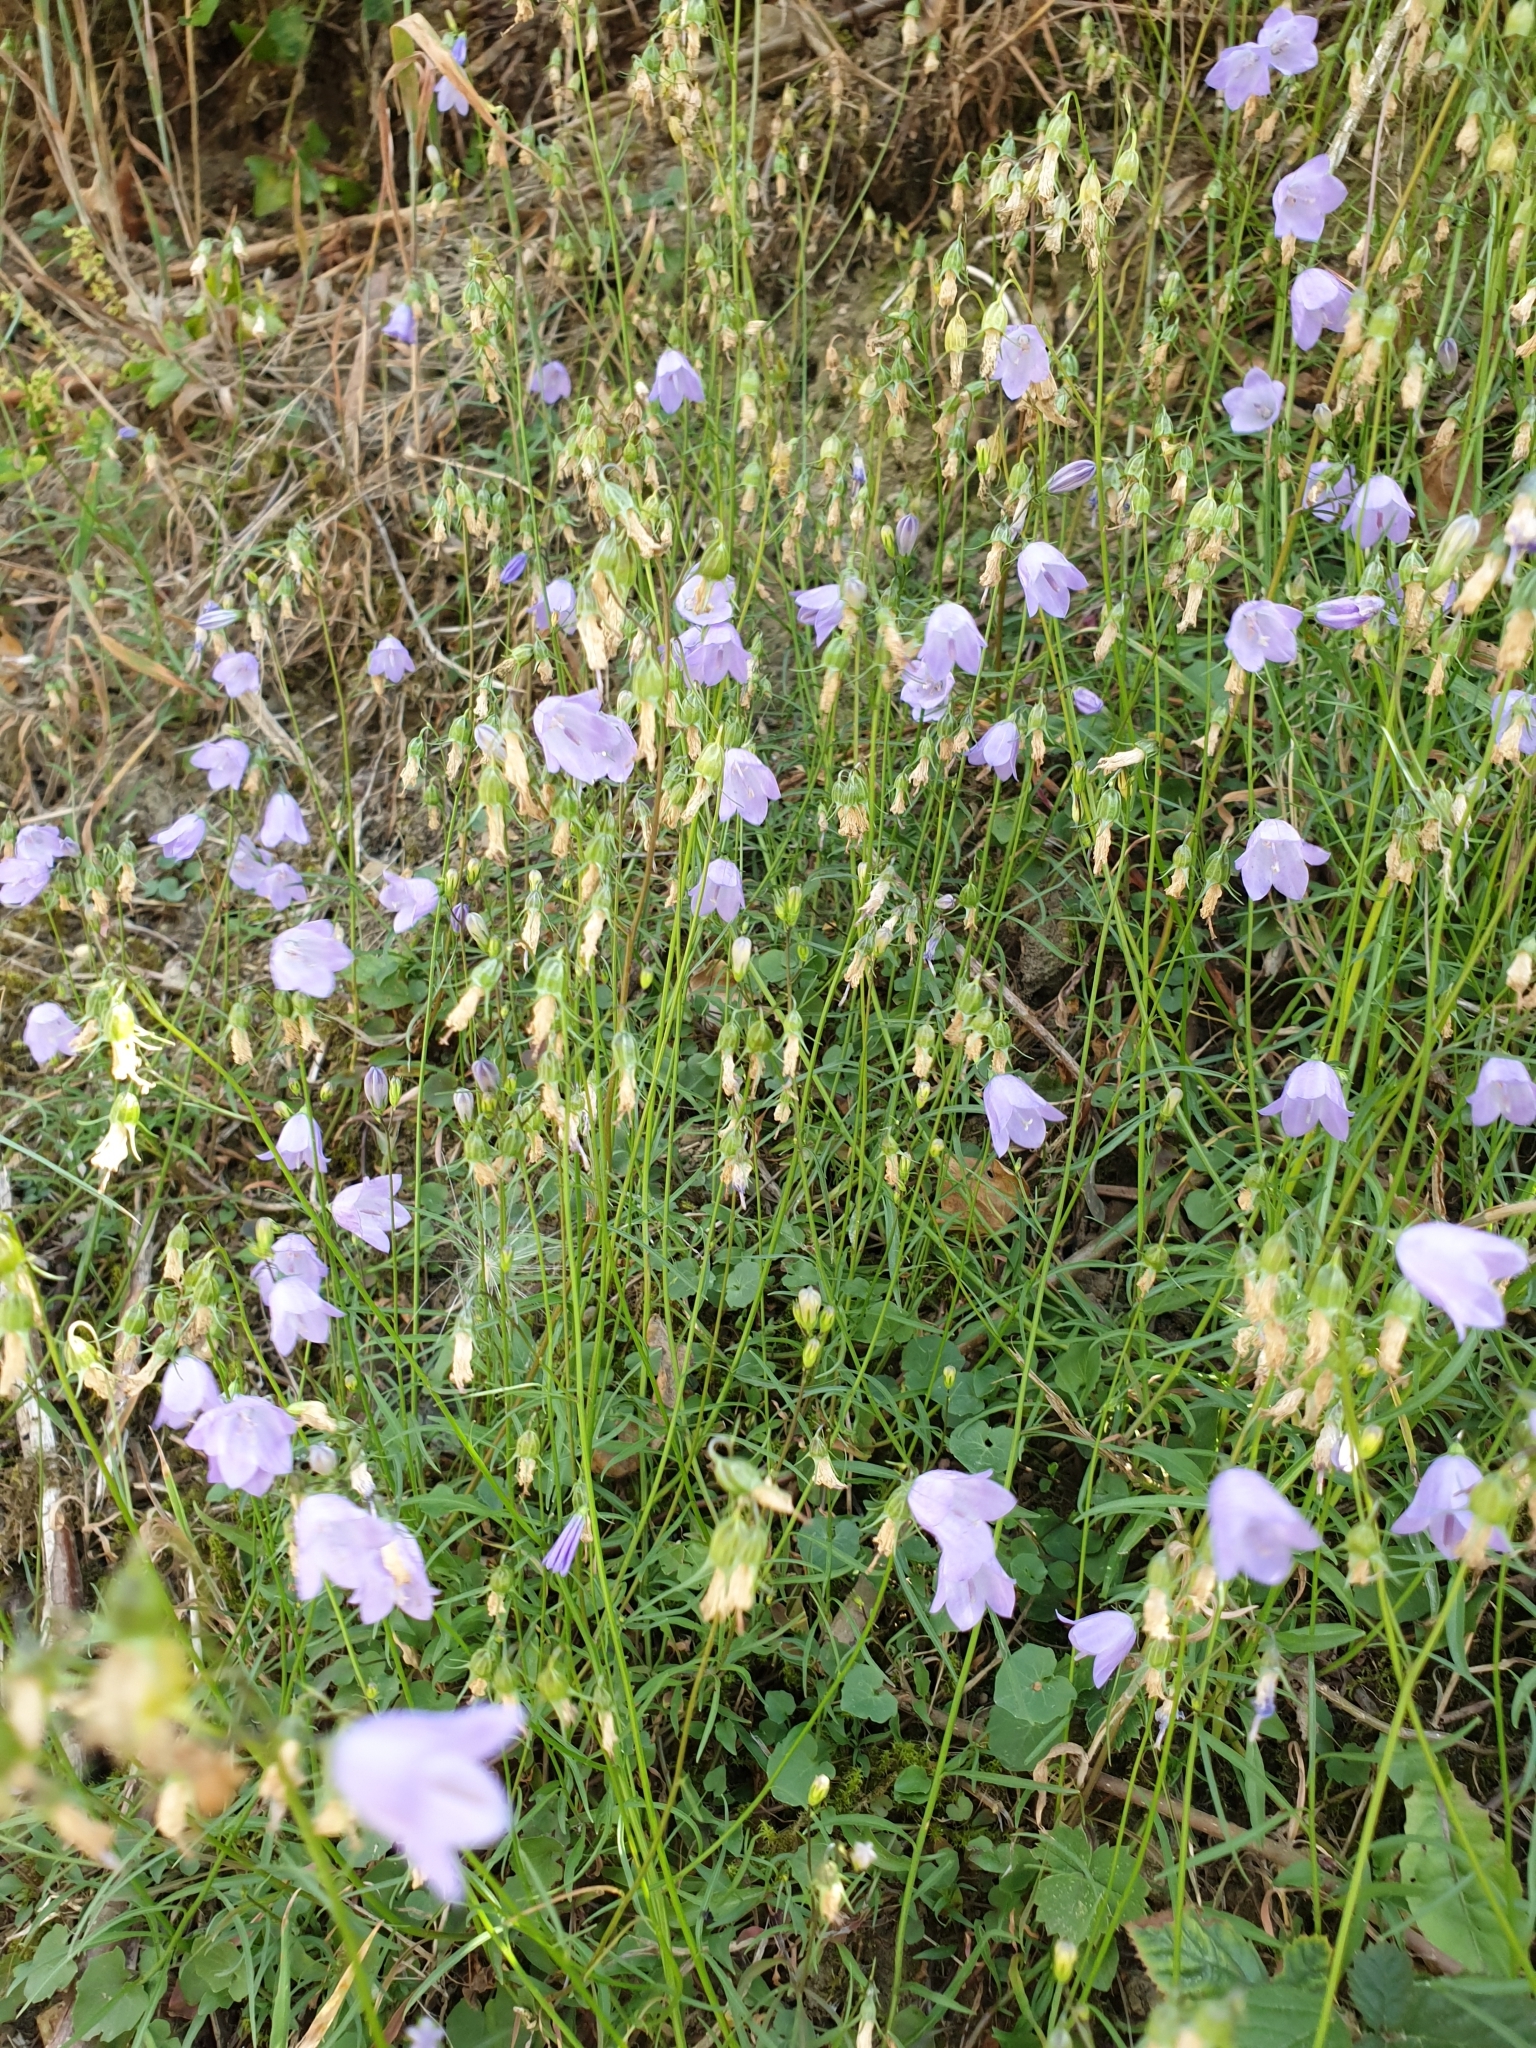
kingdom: Plantae
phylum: Tracheophyta
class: Magnoliopsida
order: Asterales
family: Campanulaceae
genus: Campanula
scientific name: Campanula rotundifolia
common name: Harebell
